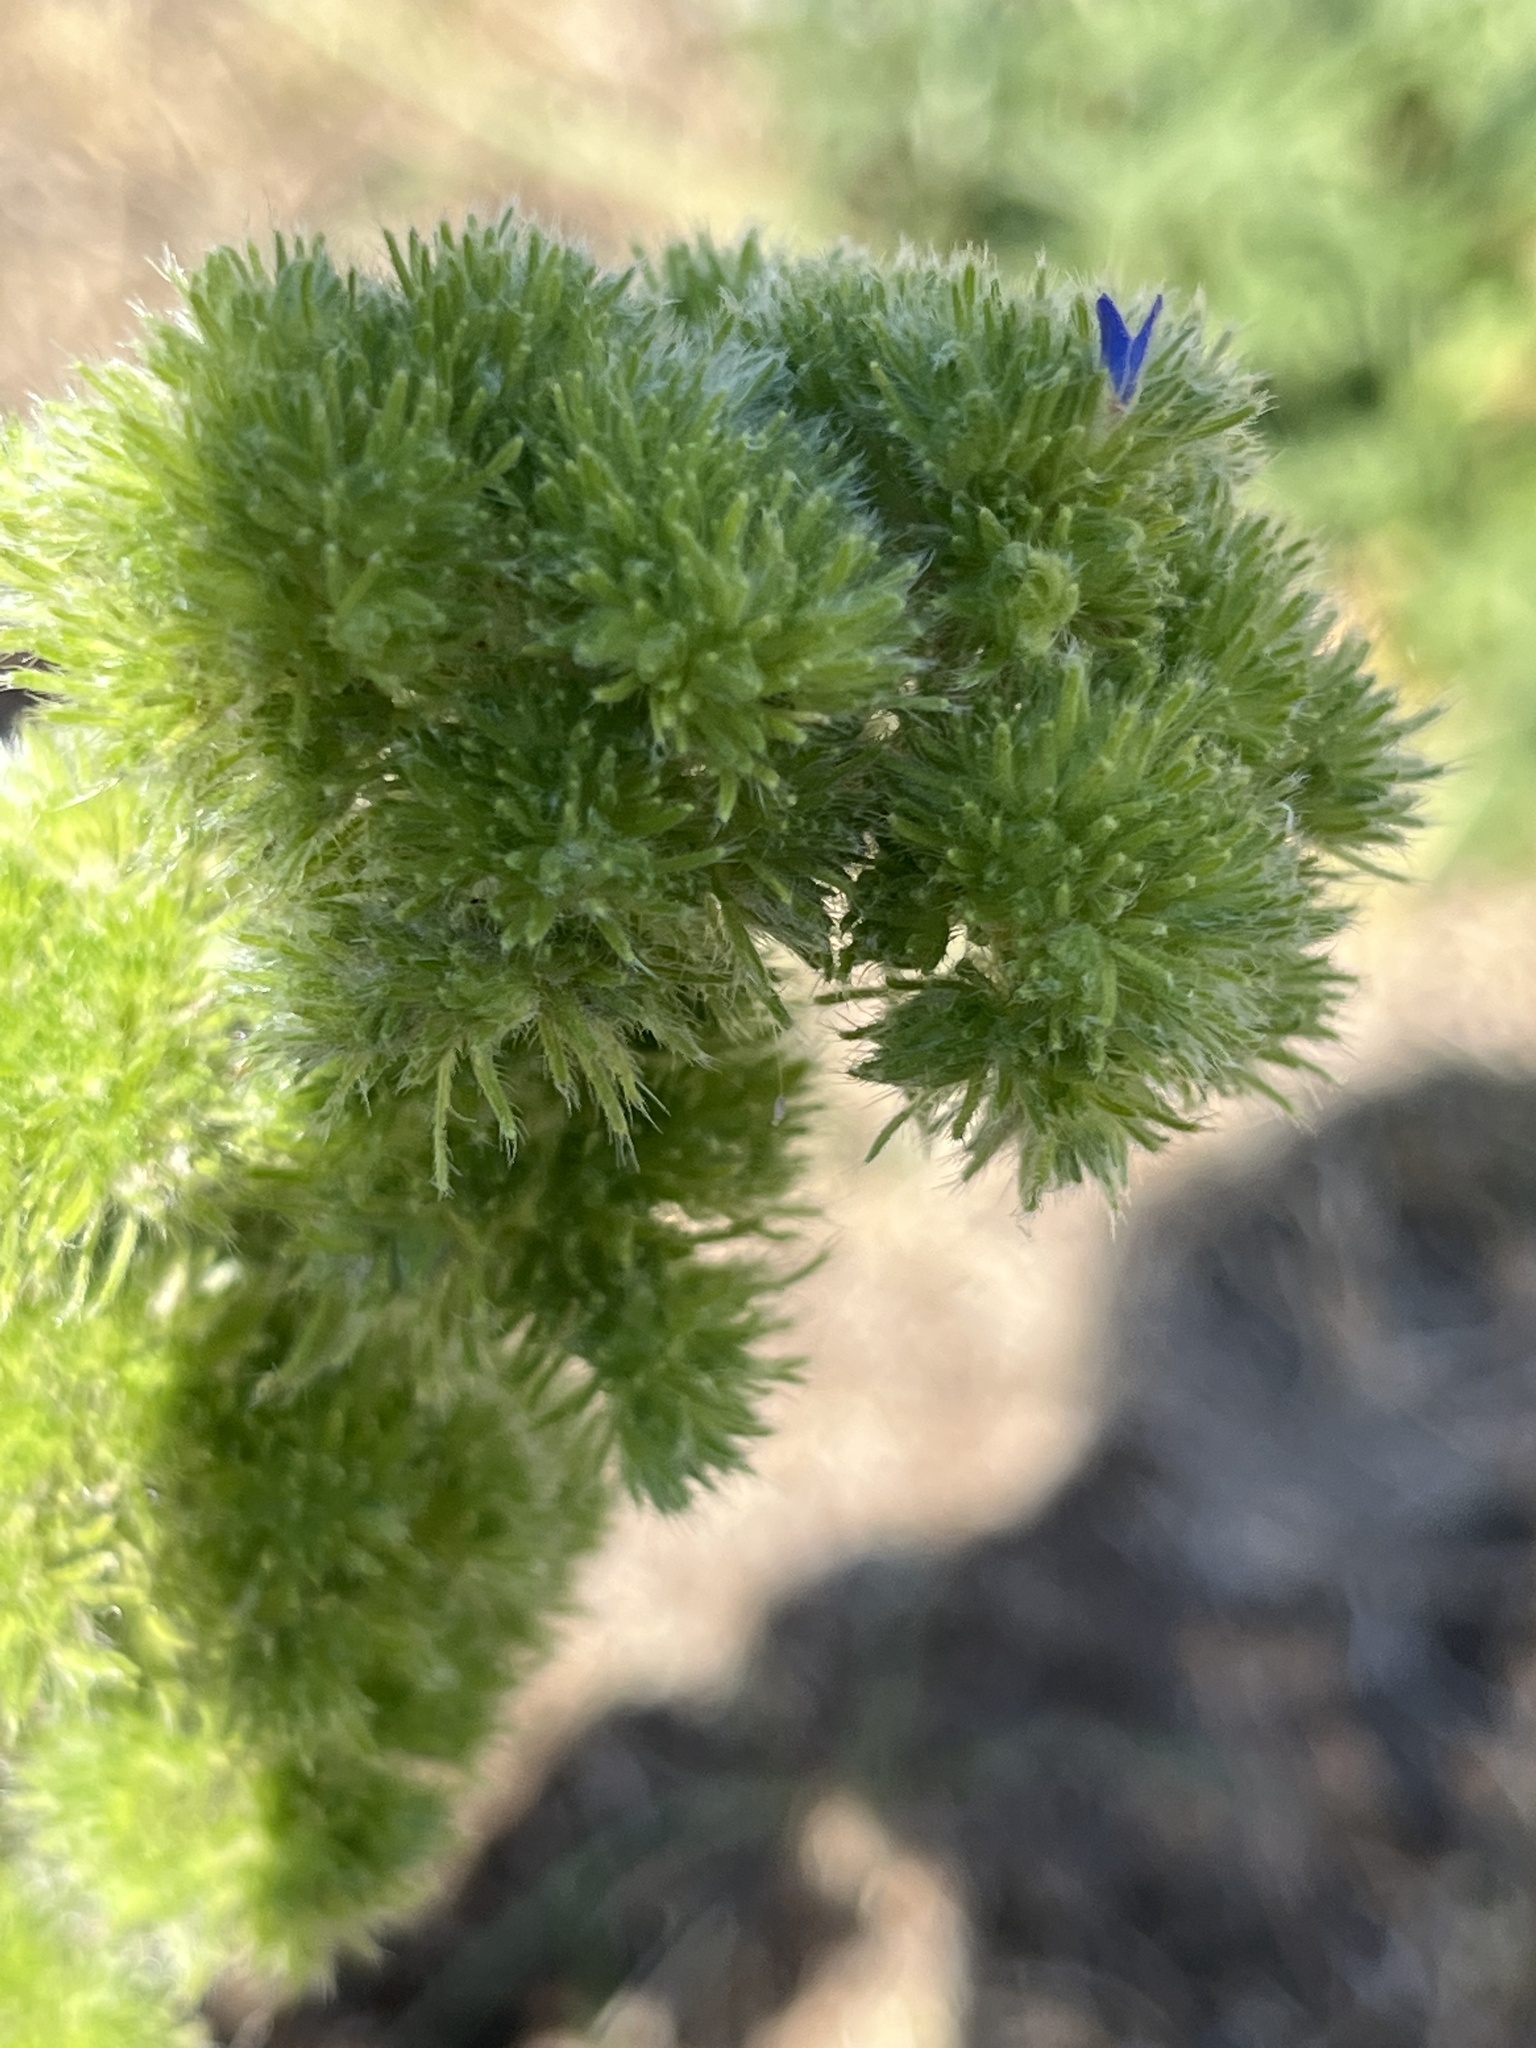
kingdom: Animalia
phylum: Arthropoda
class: Arachnida
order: Trombidiformes
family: Eriophyidae
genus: Aceria
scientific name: Aceria echii
